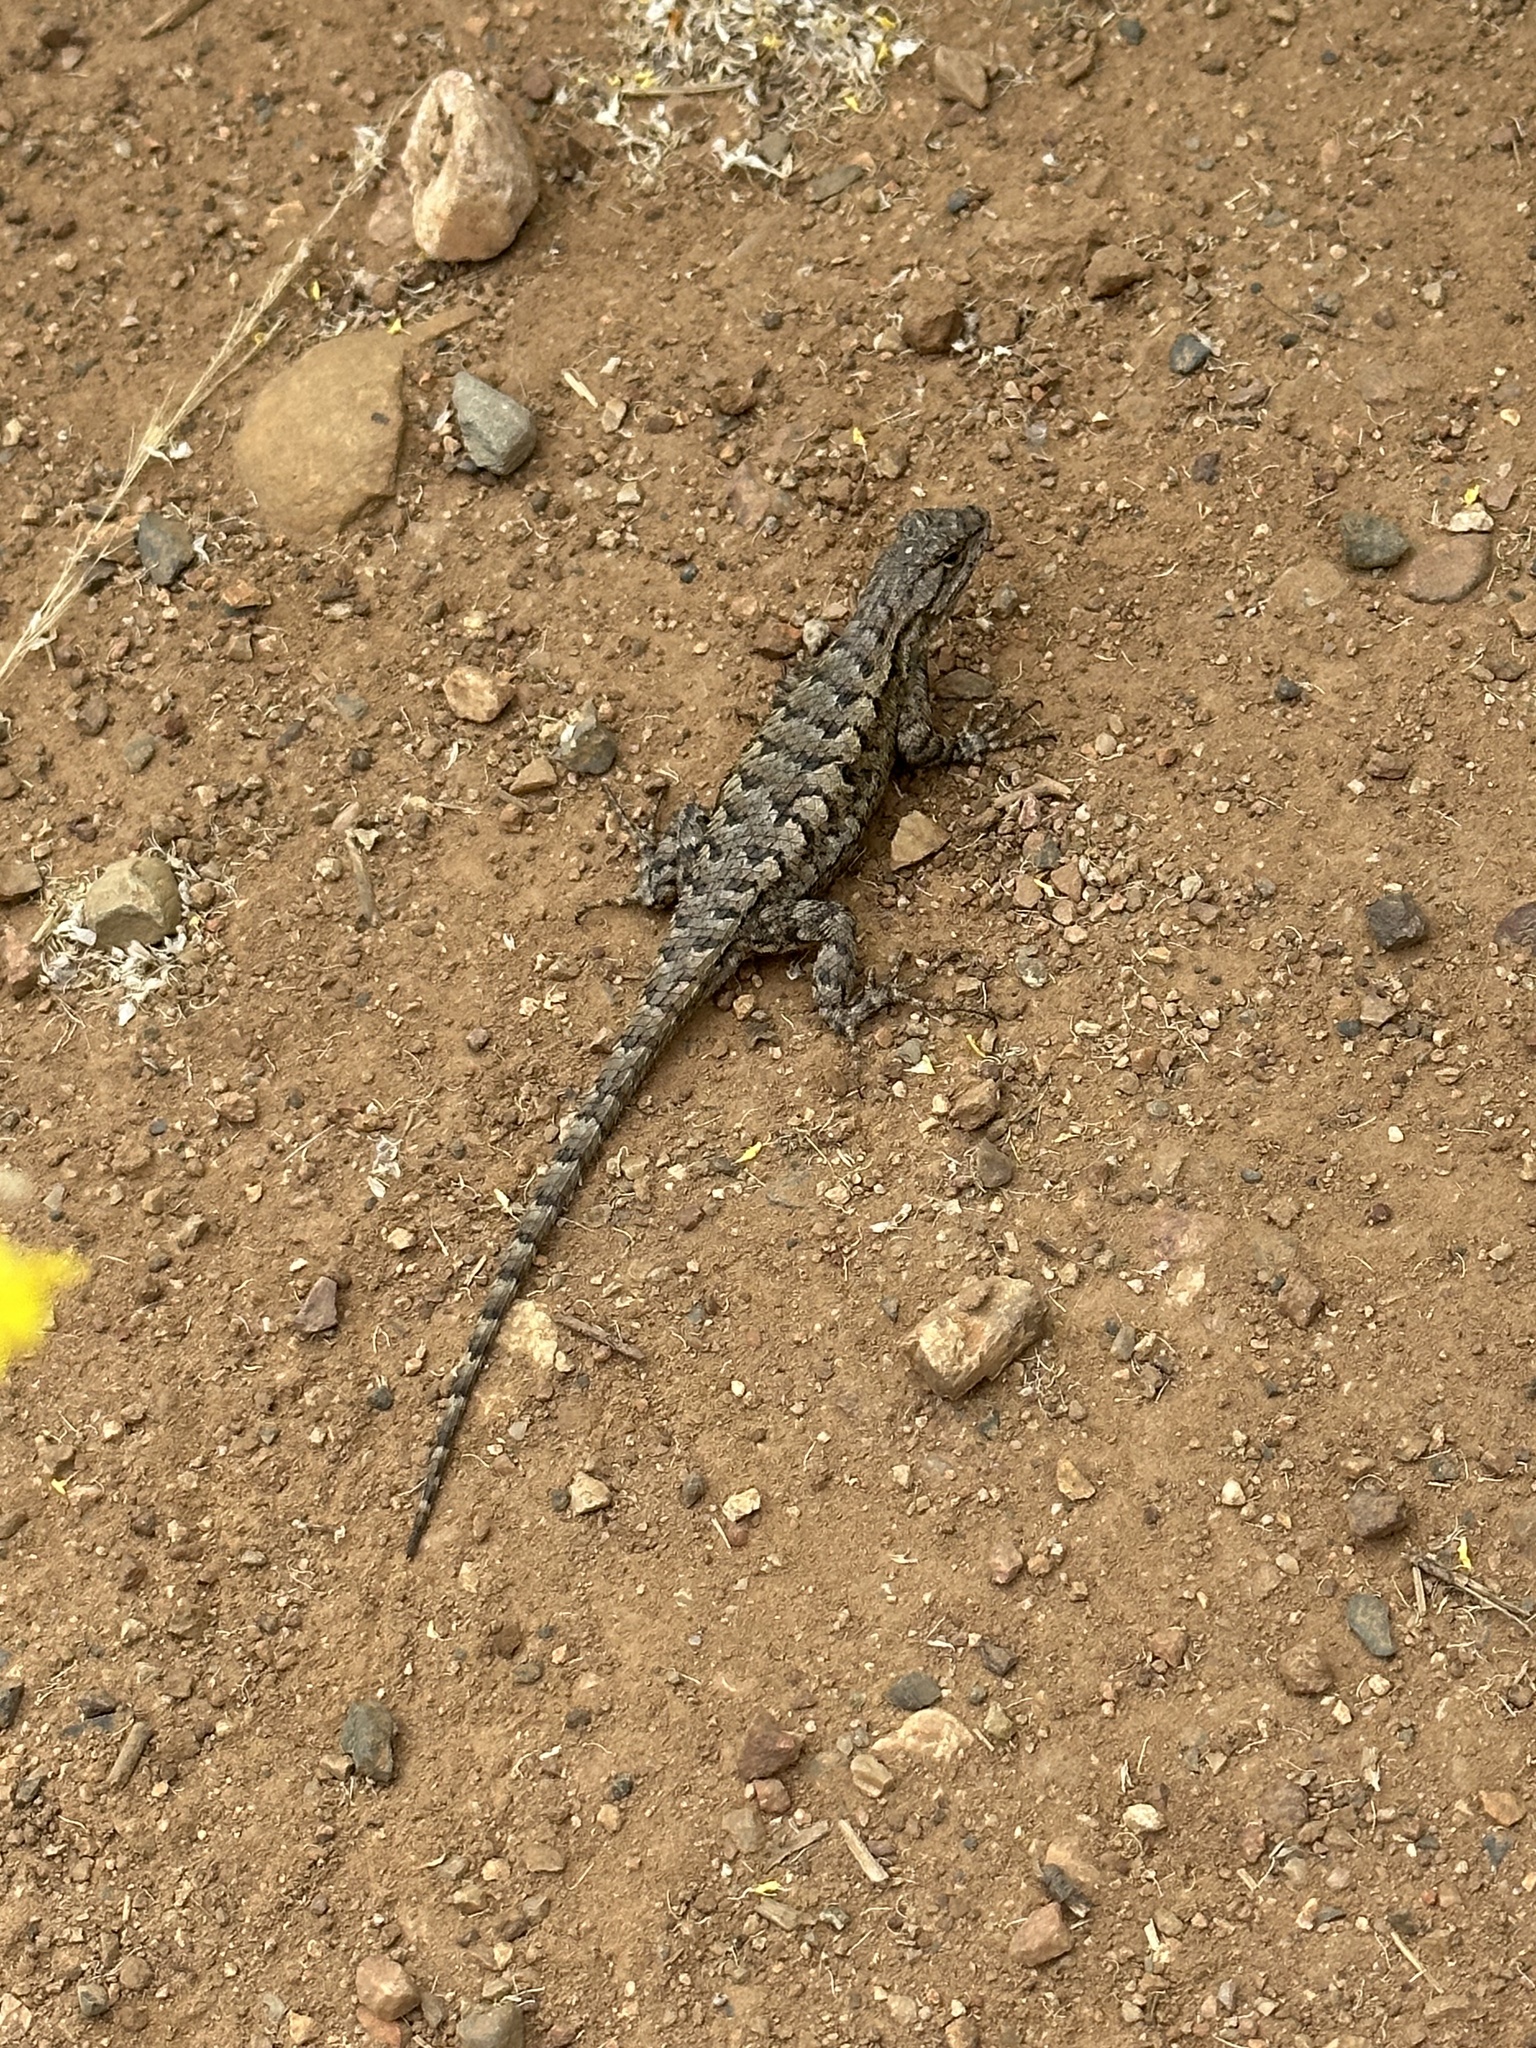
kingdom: Animalia
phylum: Chordata
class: Squamata
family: Phrynosomatidae
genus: Sceloporus
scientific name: Sceloporus occidentalis
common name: Western fence lizard
